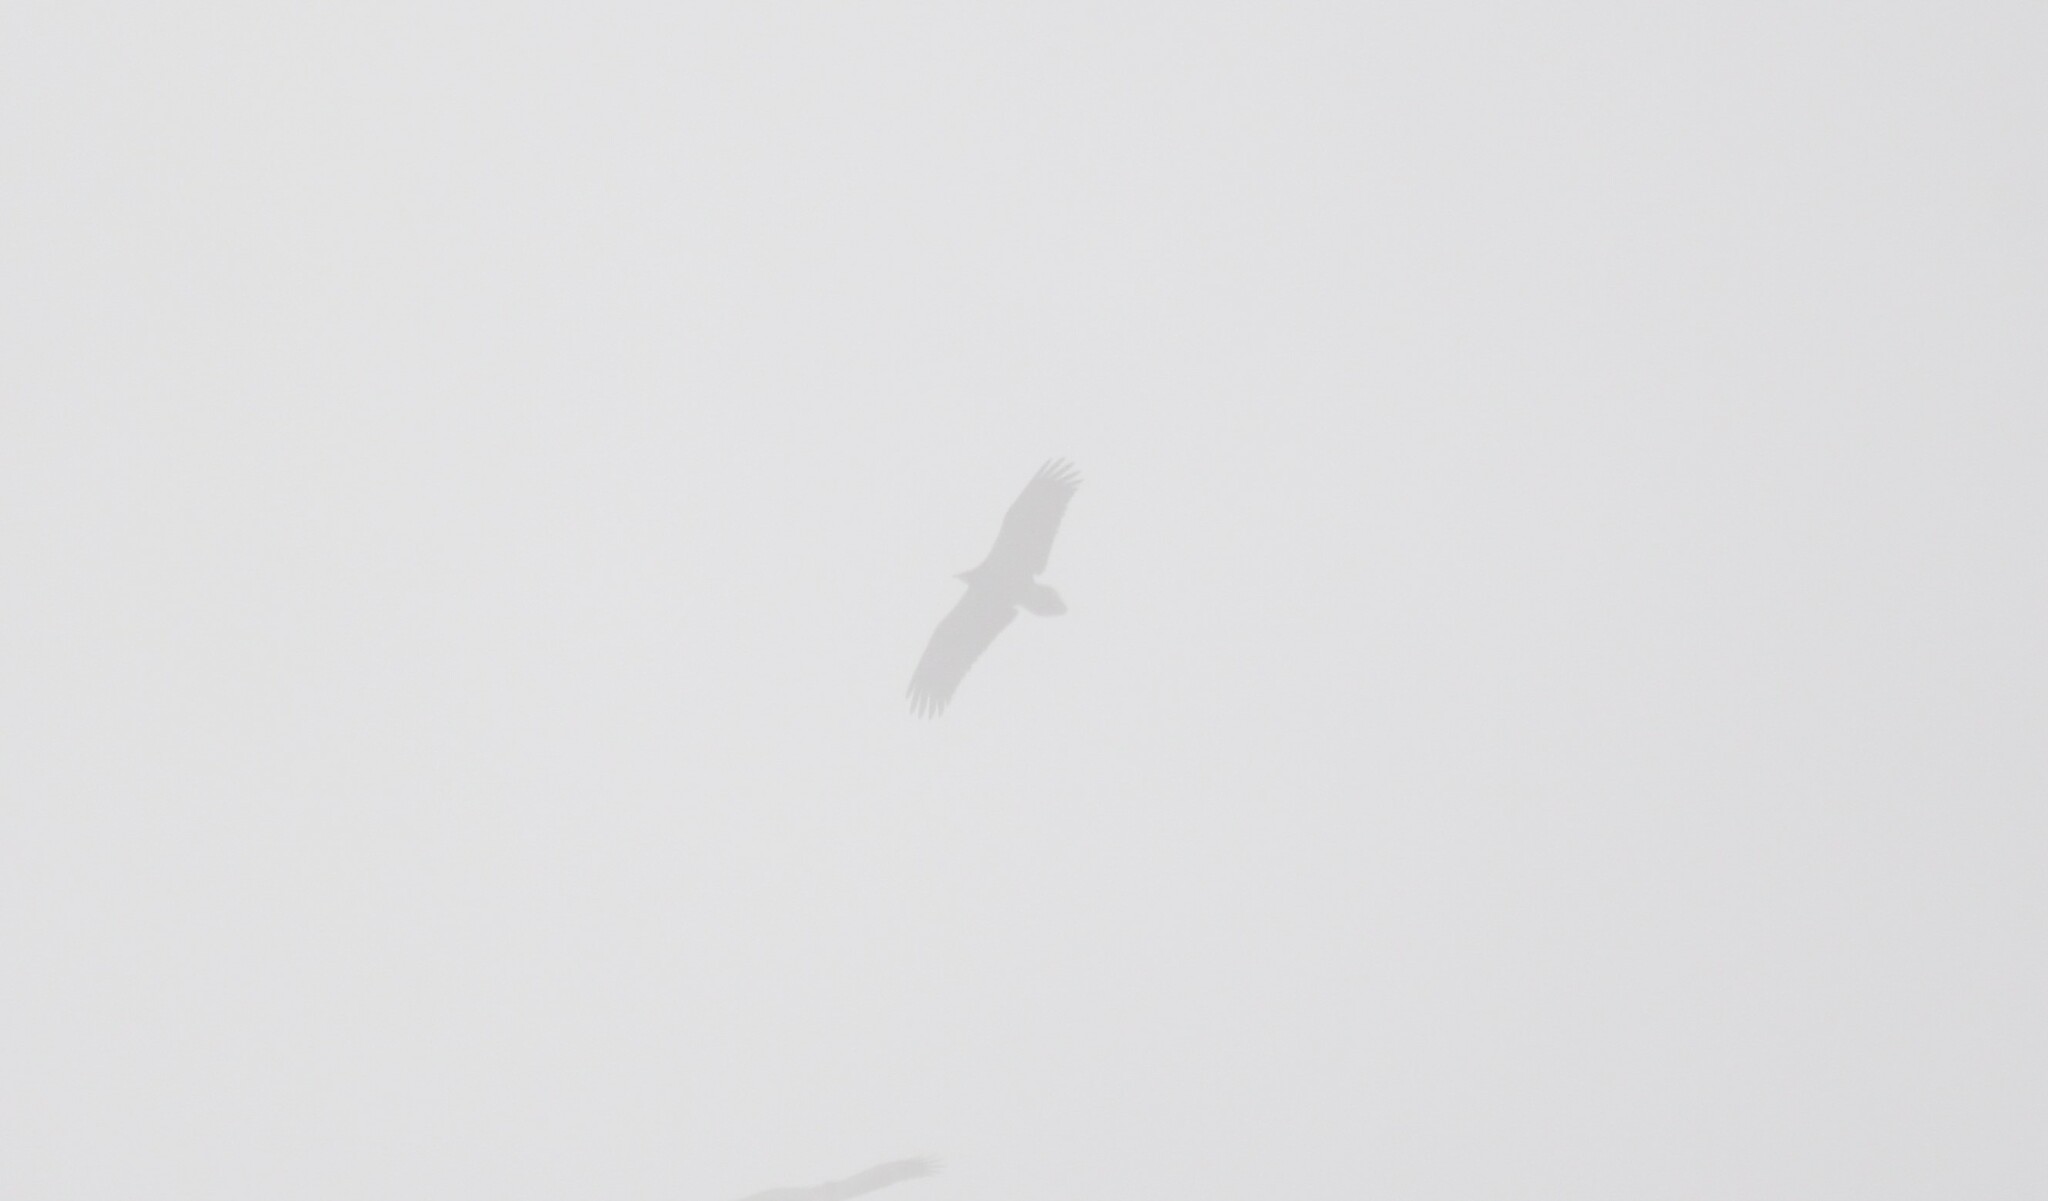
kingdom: Animalia
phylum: Chordata
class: Aves
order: Accipitriformes
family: Accipitridae
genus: Neophron
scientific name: Neophron percnopterus
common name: Egyptian vulture
